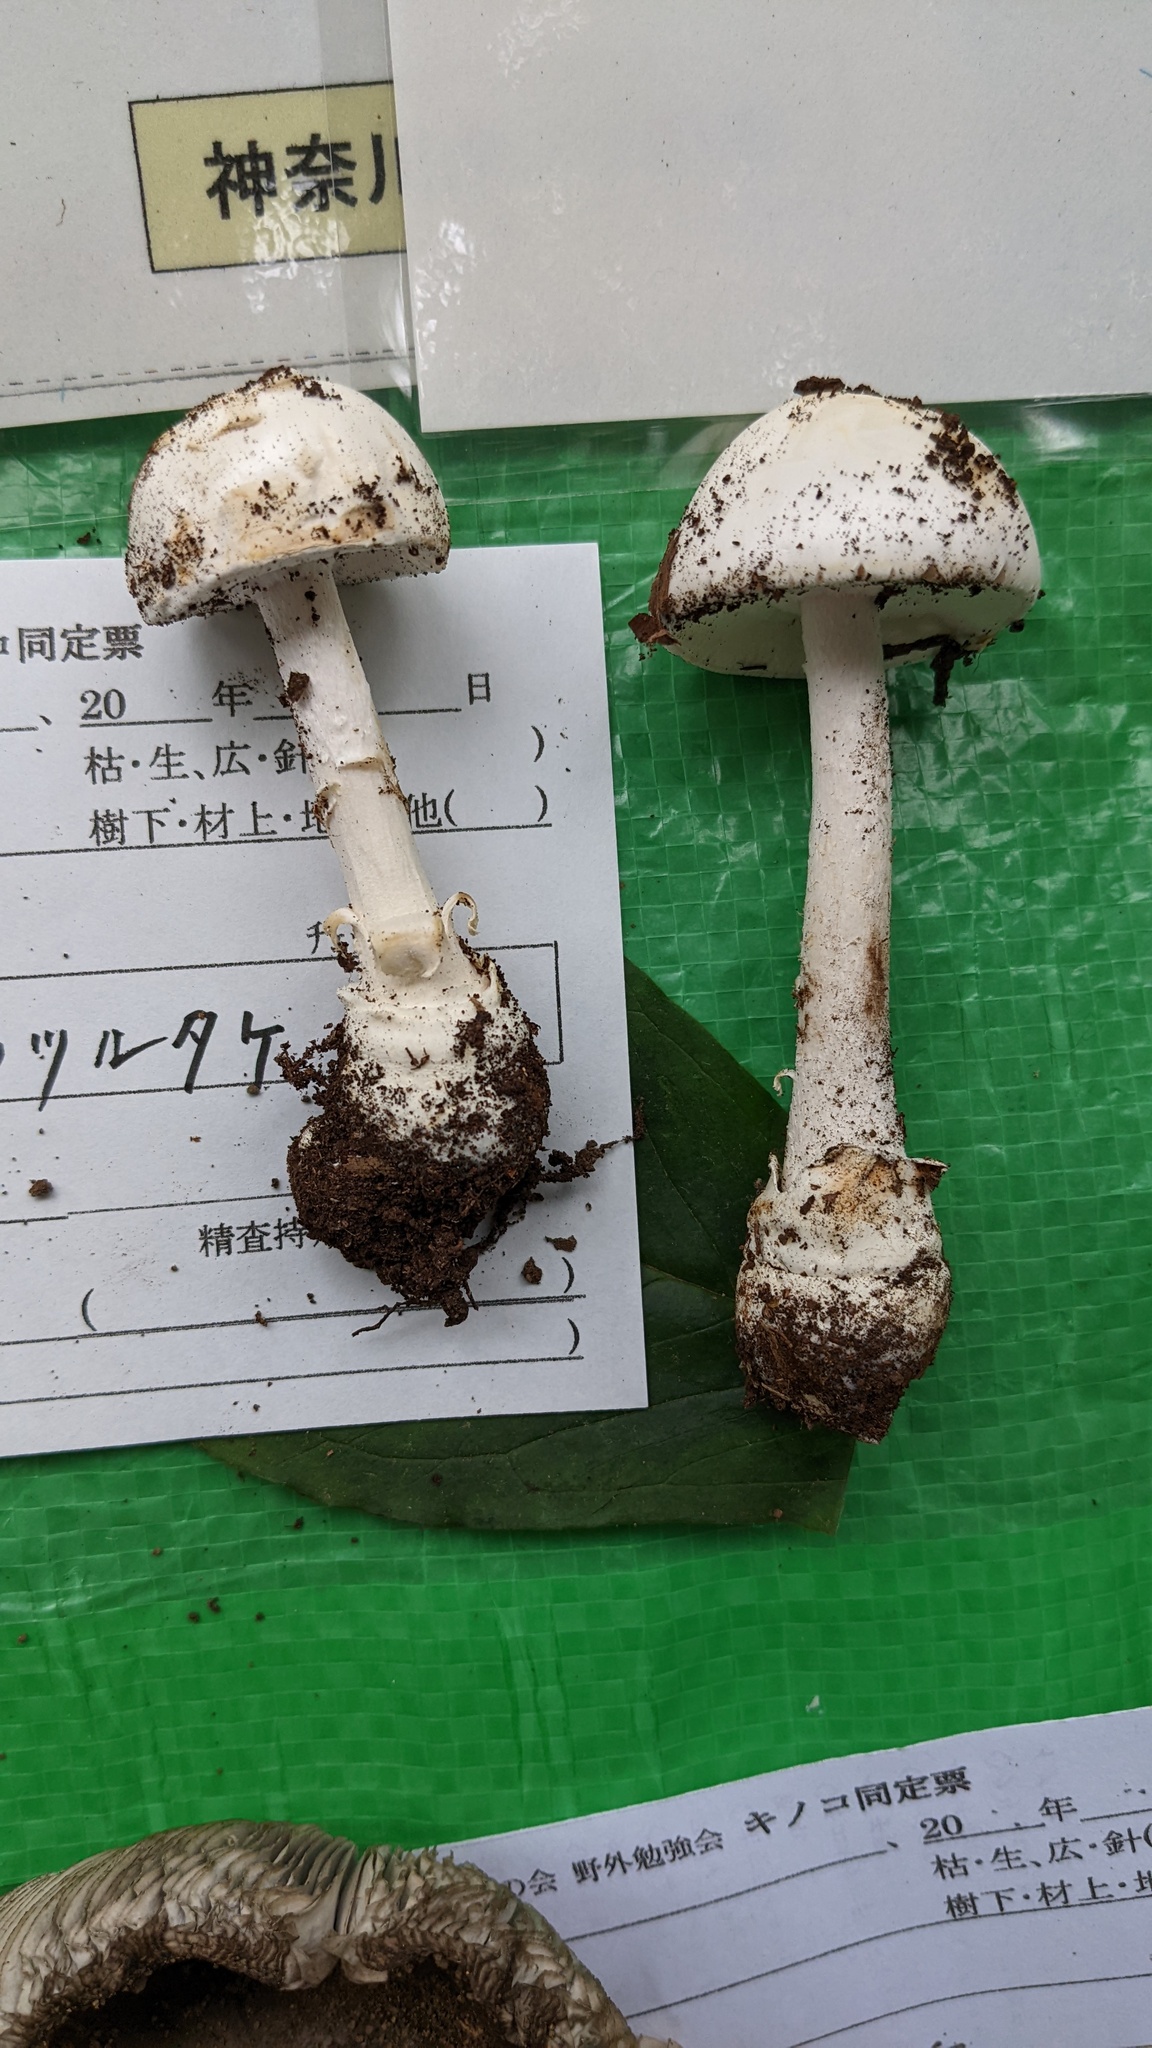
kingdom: Fungi
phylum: Basidiomycota
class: Agaricomycetes
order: Agaricales
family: Amanitaceae
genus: Amanita
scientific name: Amanita oberwinkleriana
